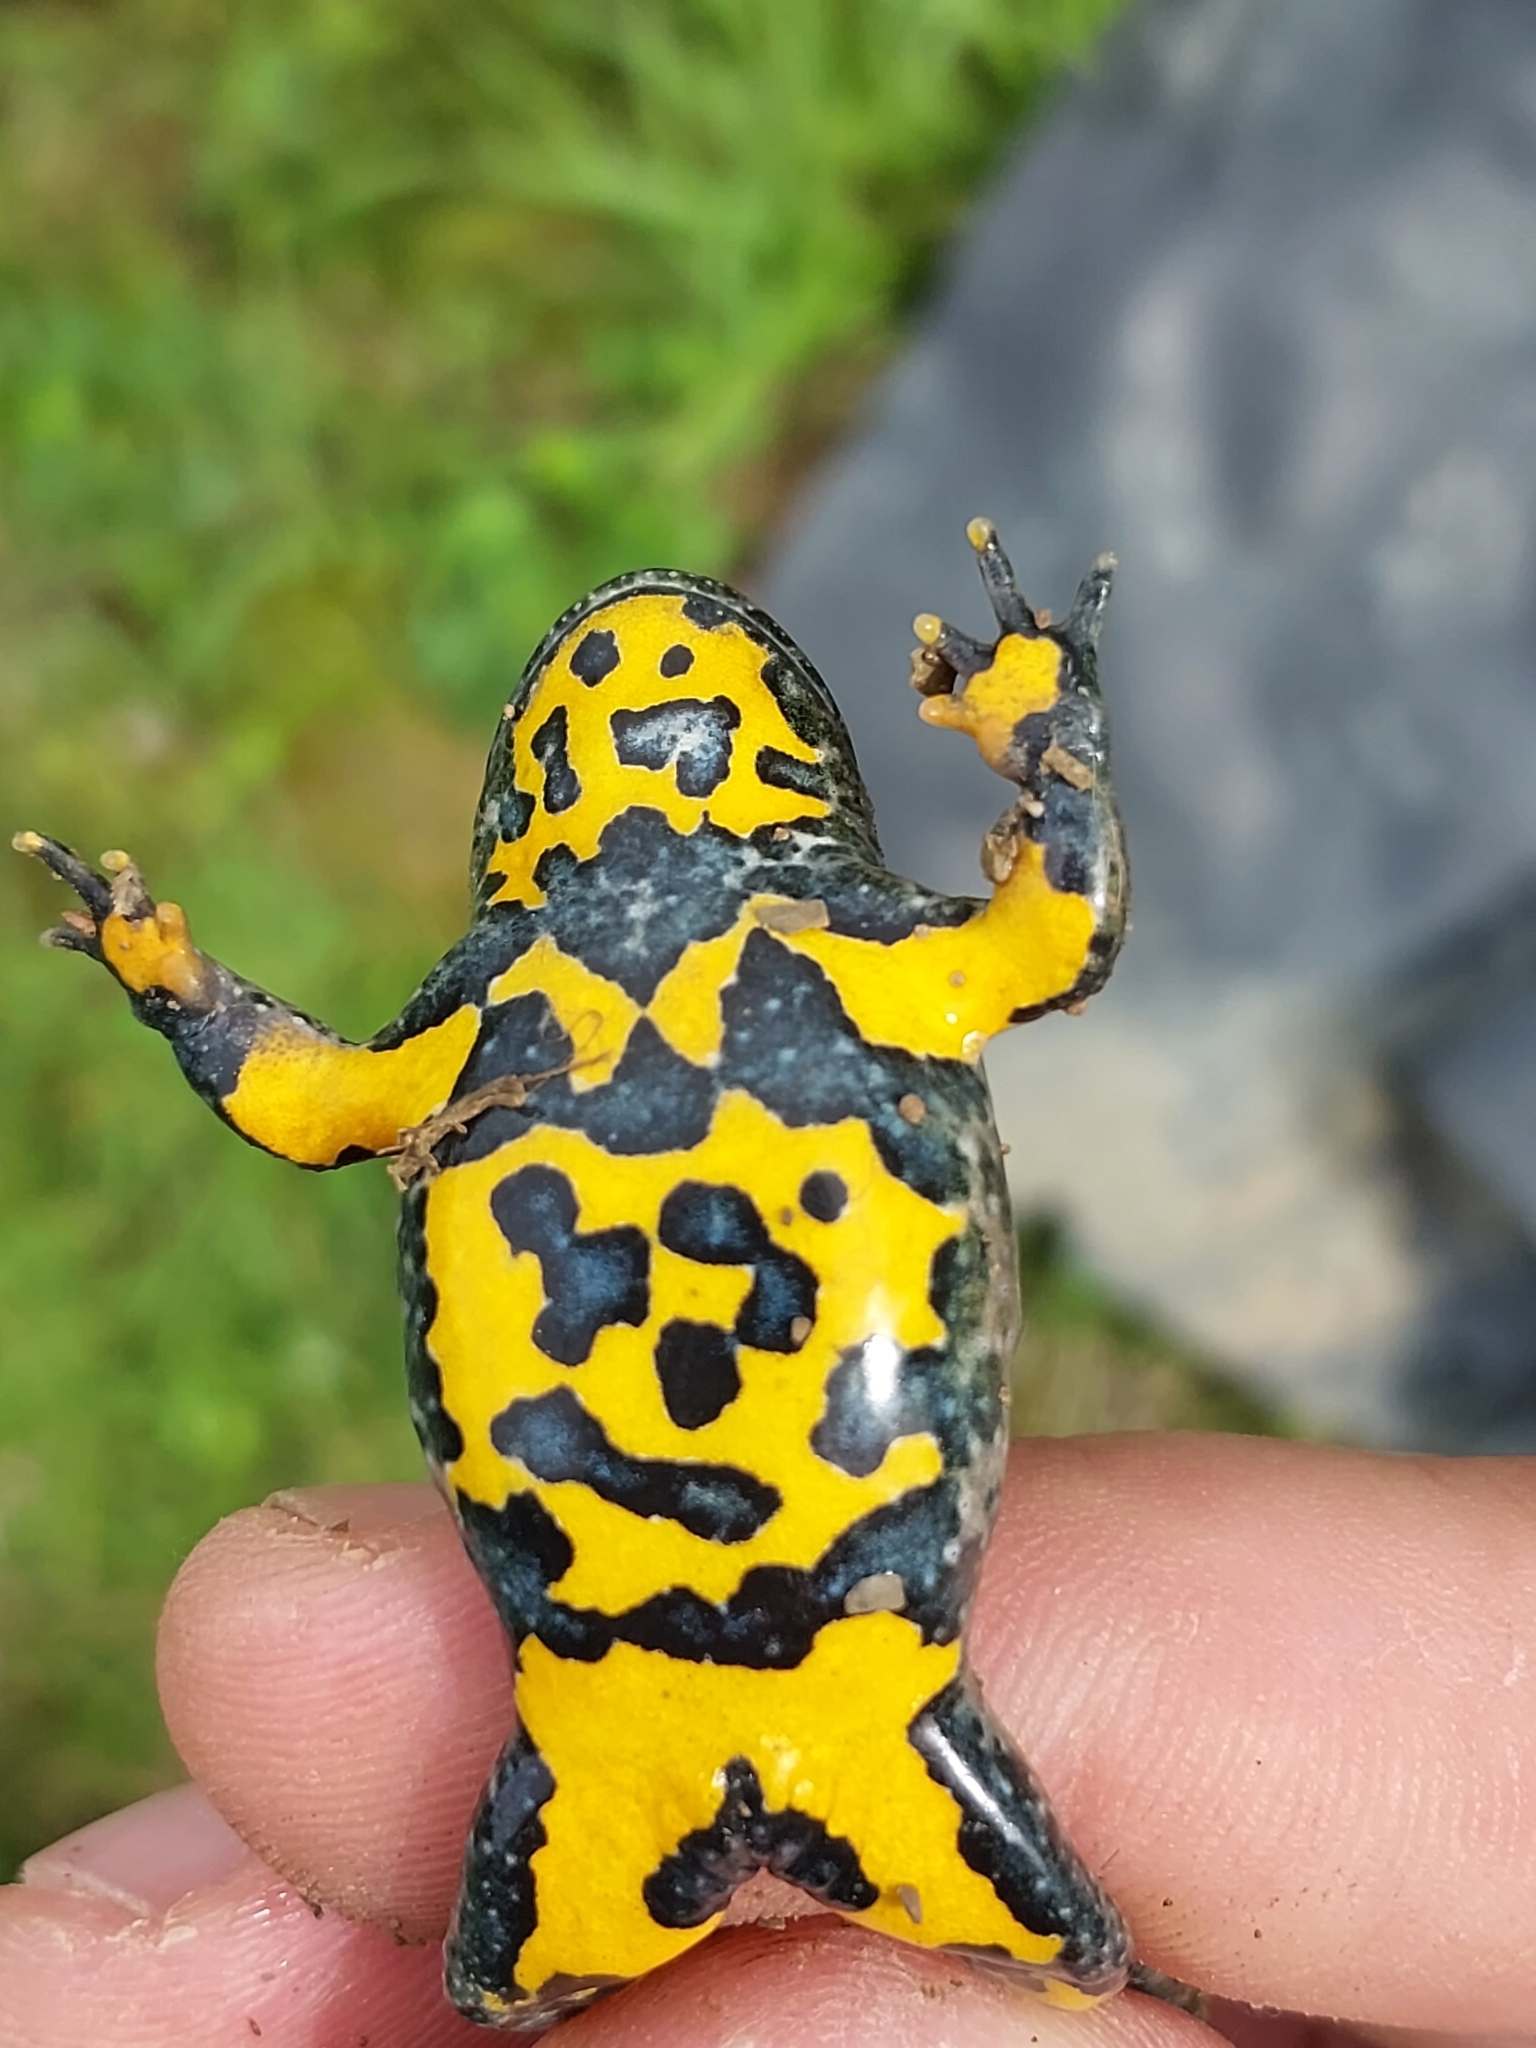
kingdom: Animalia
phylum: Chordata
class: Amphibia
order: Anura
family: Bombinatoridae
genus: Bombina
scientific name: Bombina variegata
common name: Yellow-bellied toad
